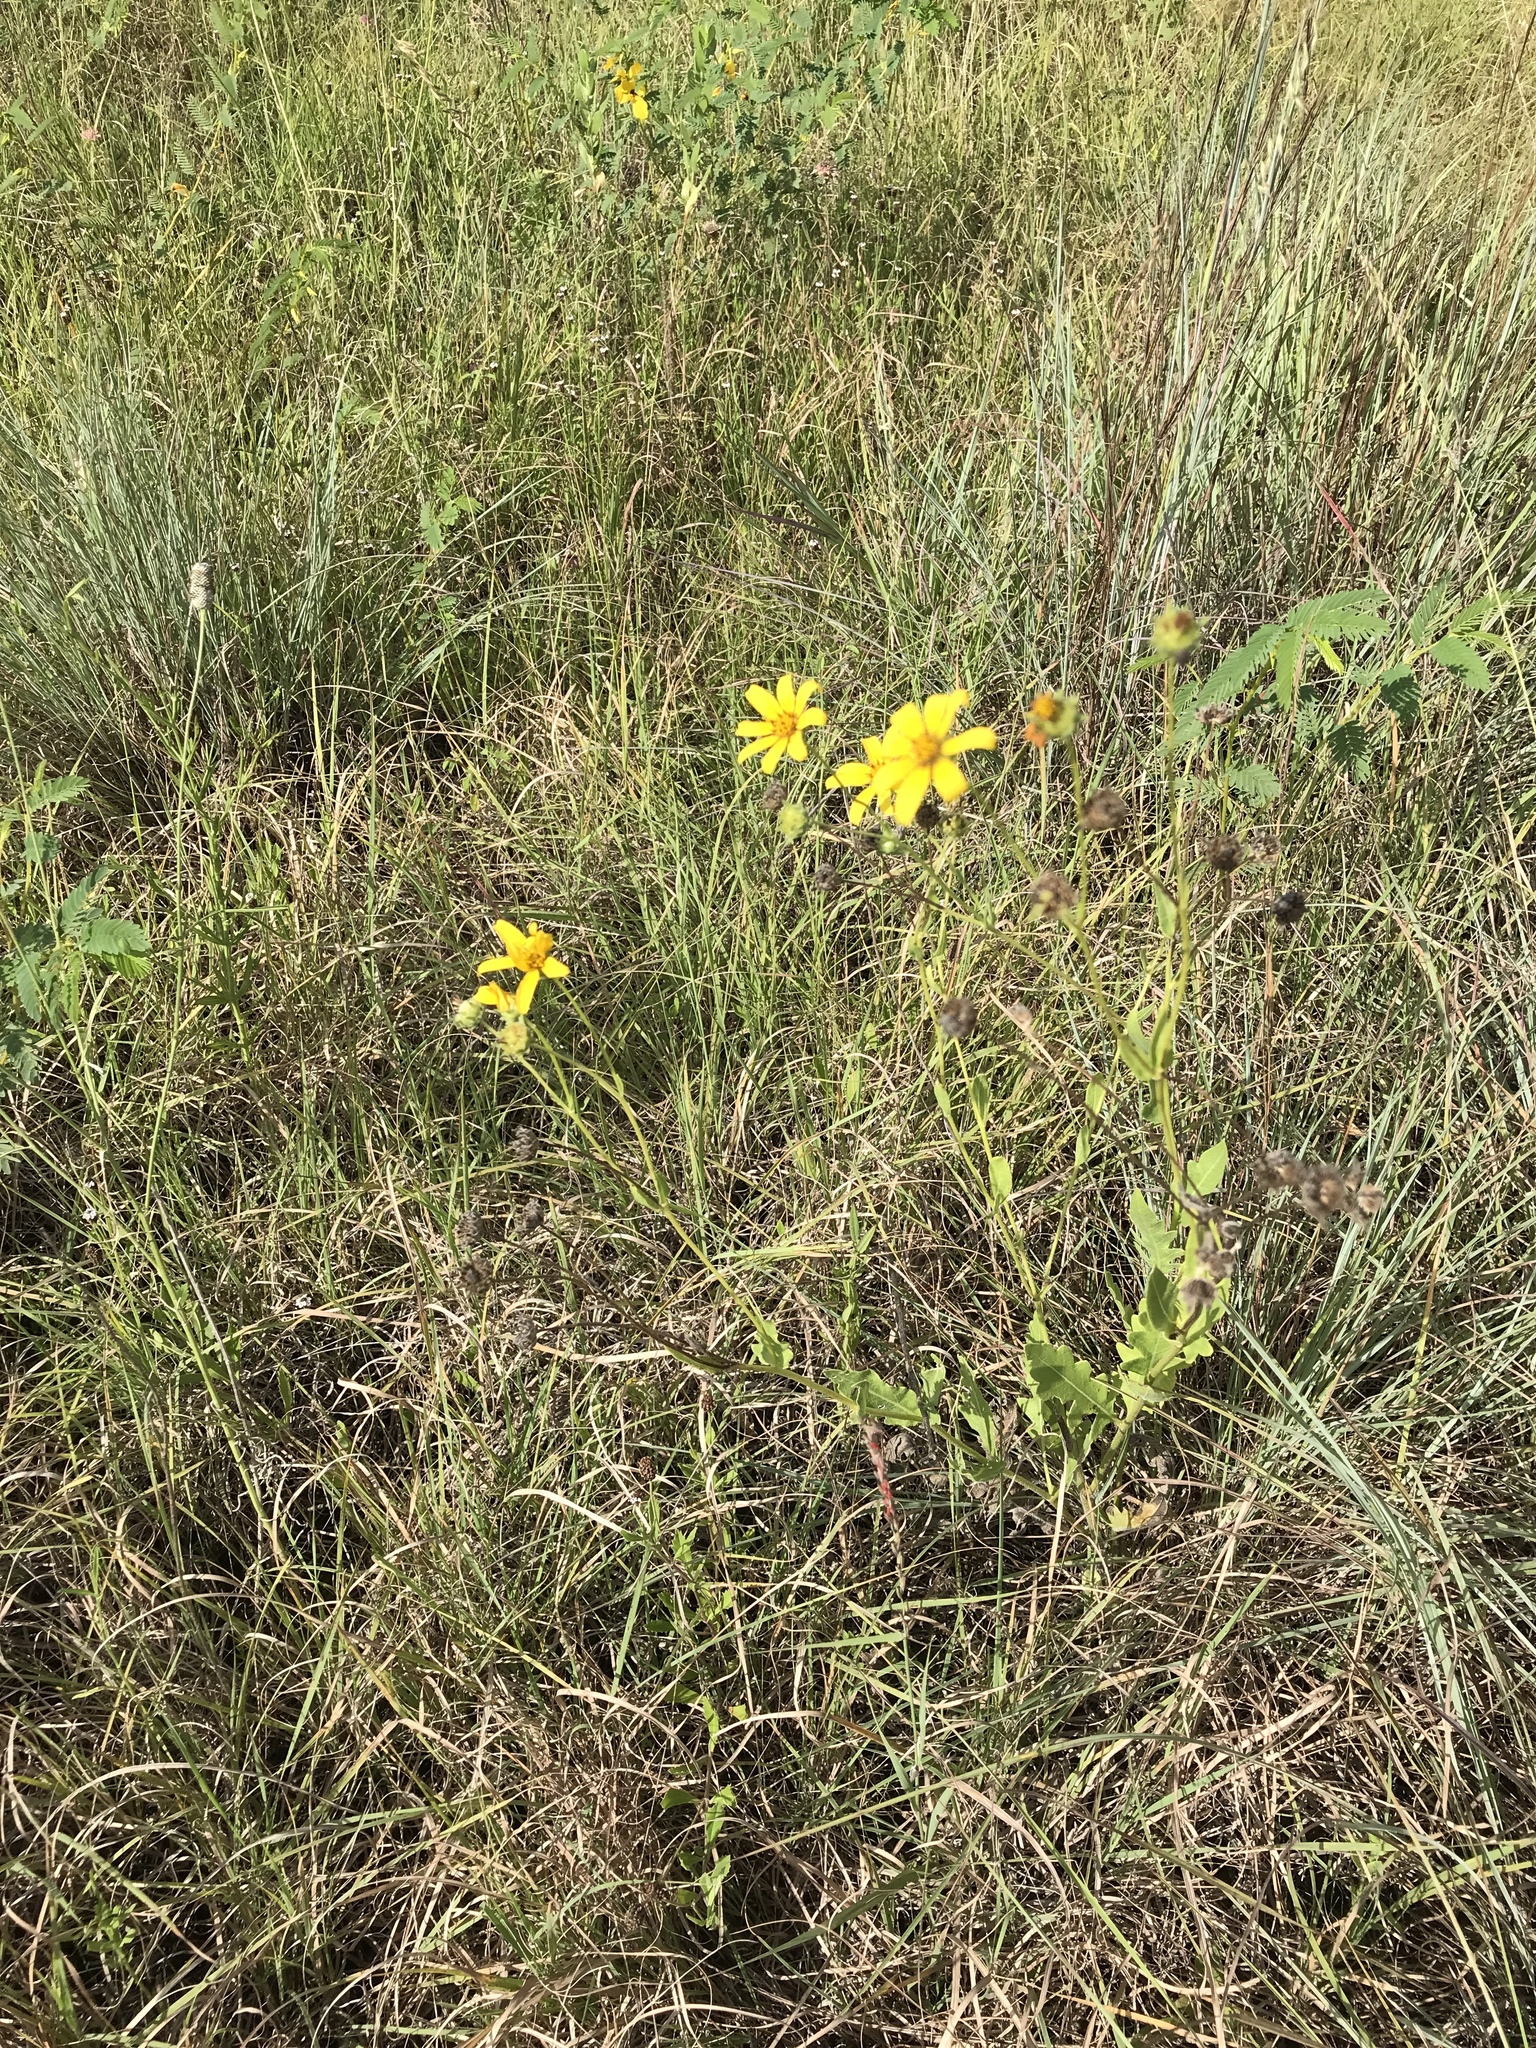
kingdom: Plantae
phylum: Tracheophyta
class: Magnoliopsida
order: Asterales
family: Asteraceae
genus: Engelmannia
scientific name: Engelmannia peristenia
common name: Engelmann's daisy
